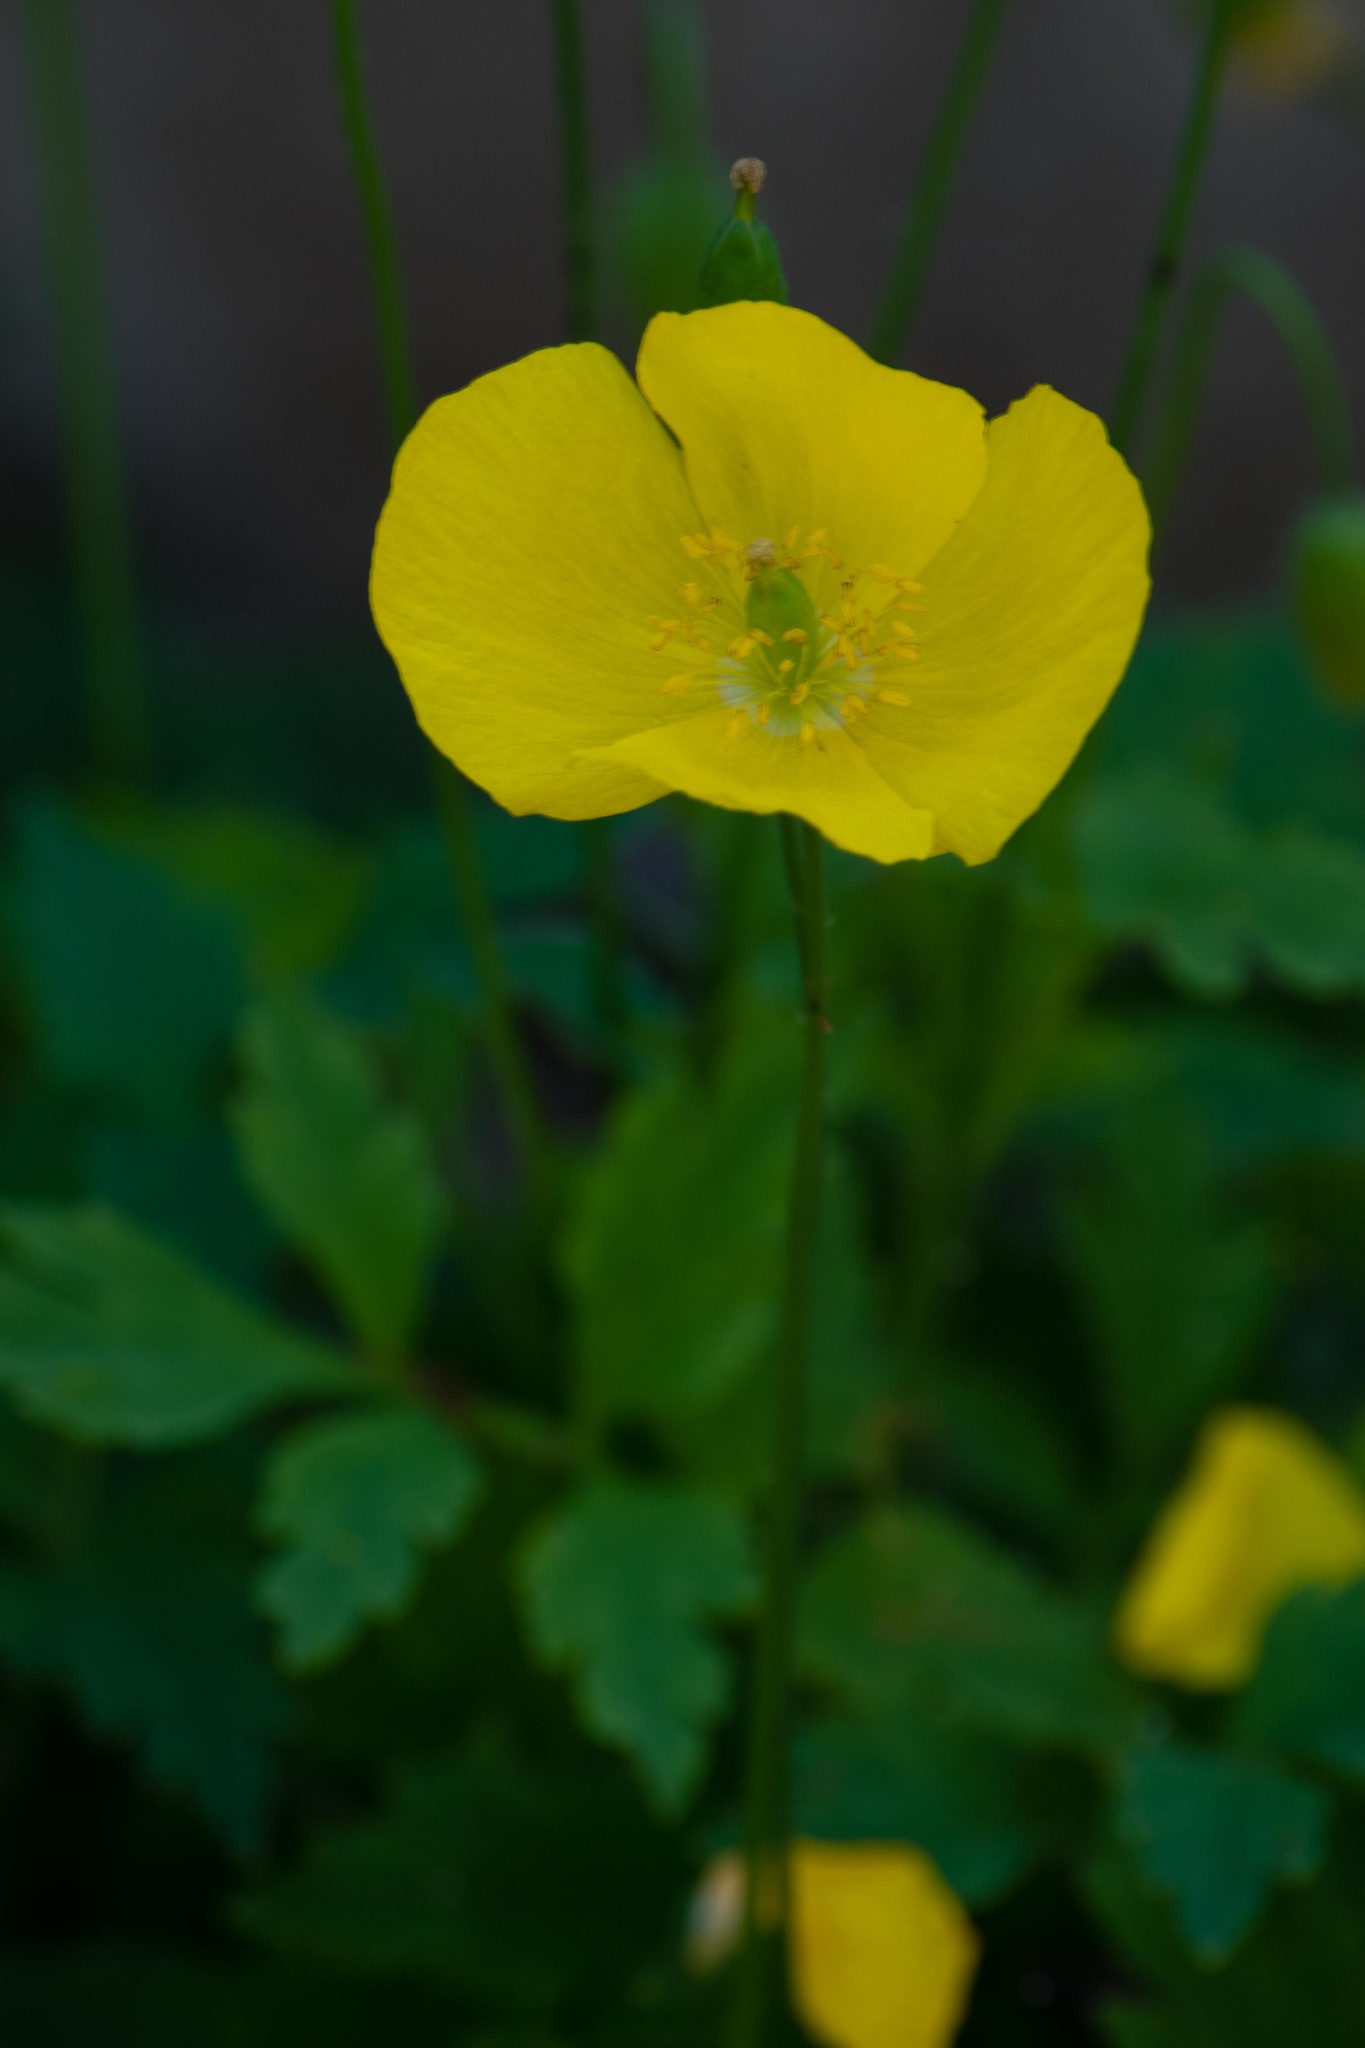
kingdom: Plantae
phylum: Tracheophyta
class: Magnoliopsida
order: Ranunculales
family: Papaveraceae
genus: Papaver
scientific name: Papaver cambricum
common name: Poppy
